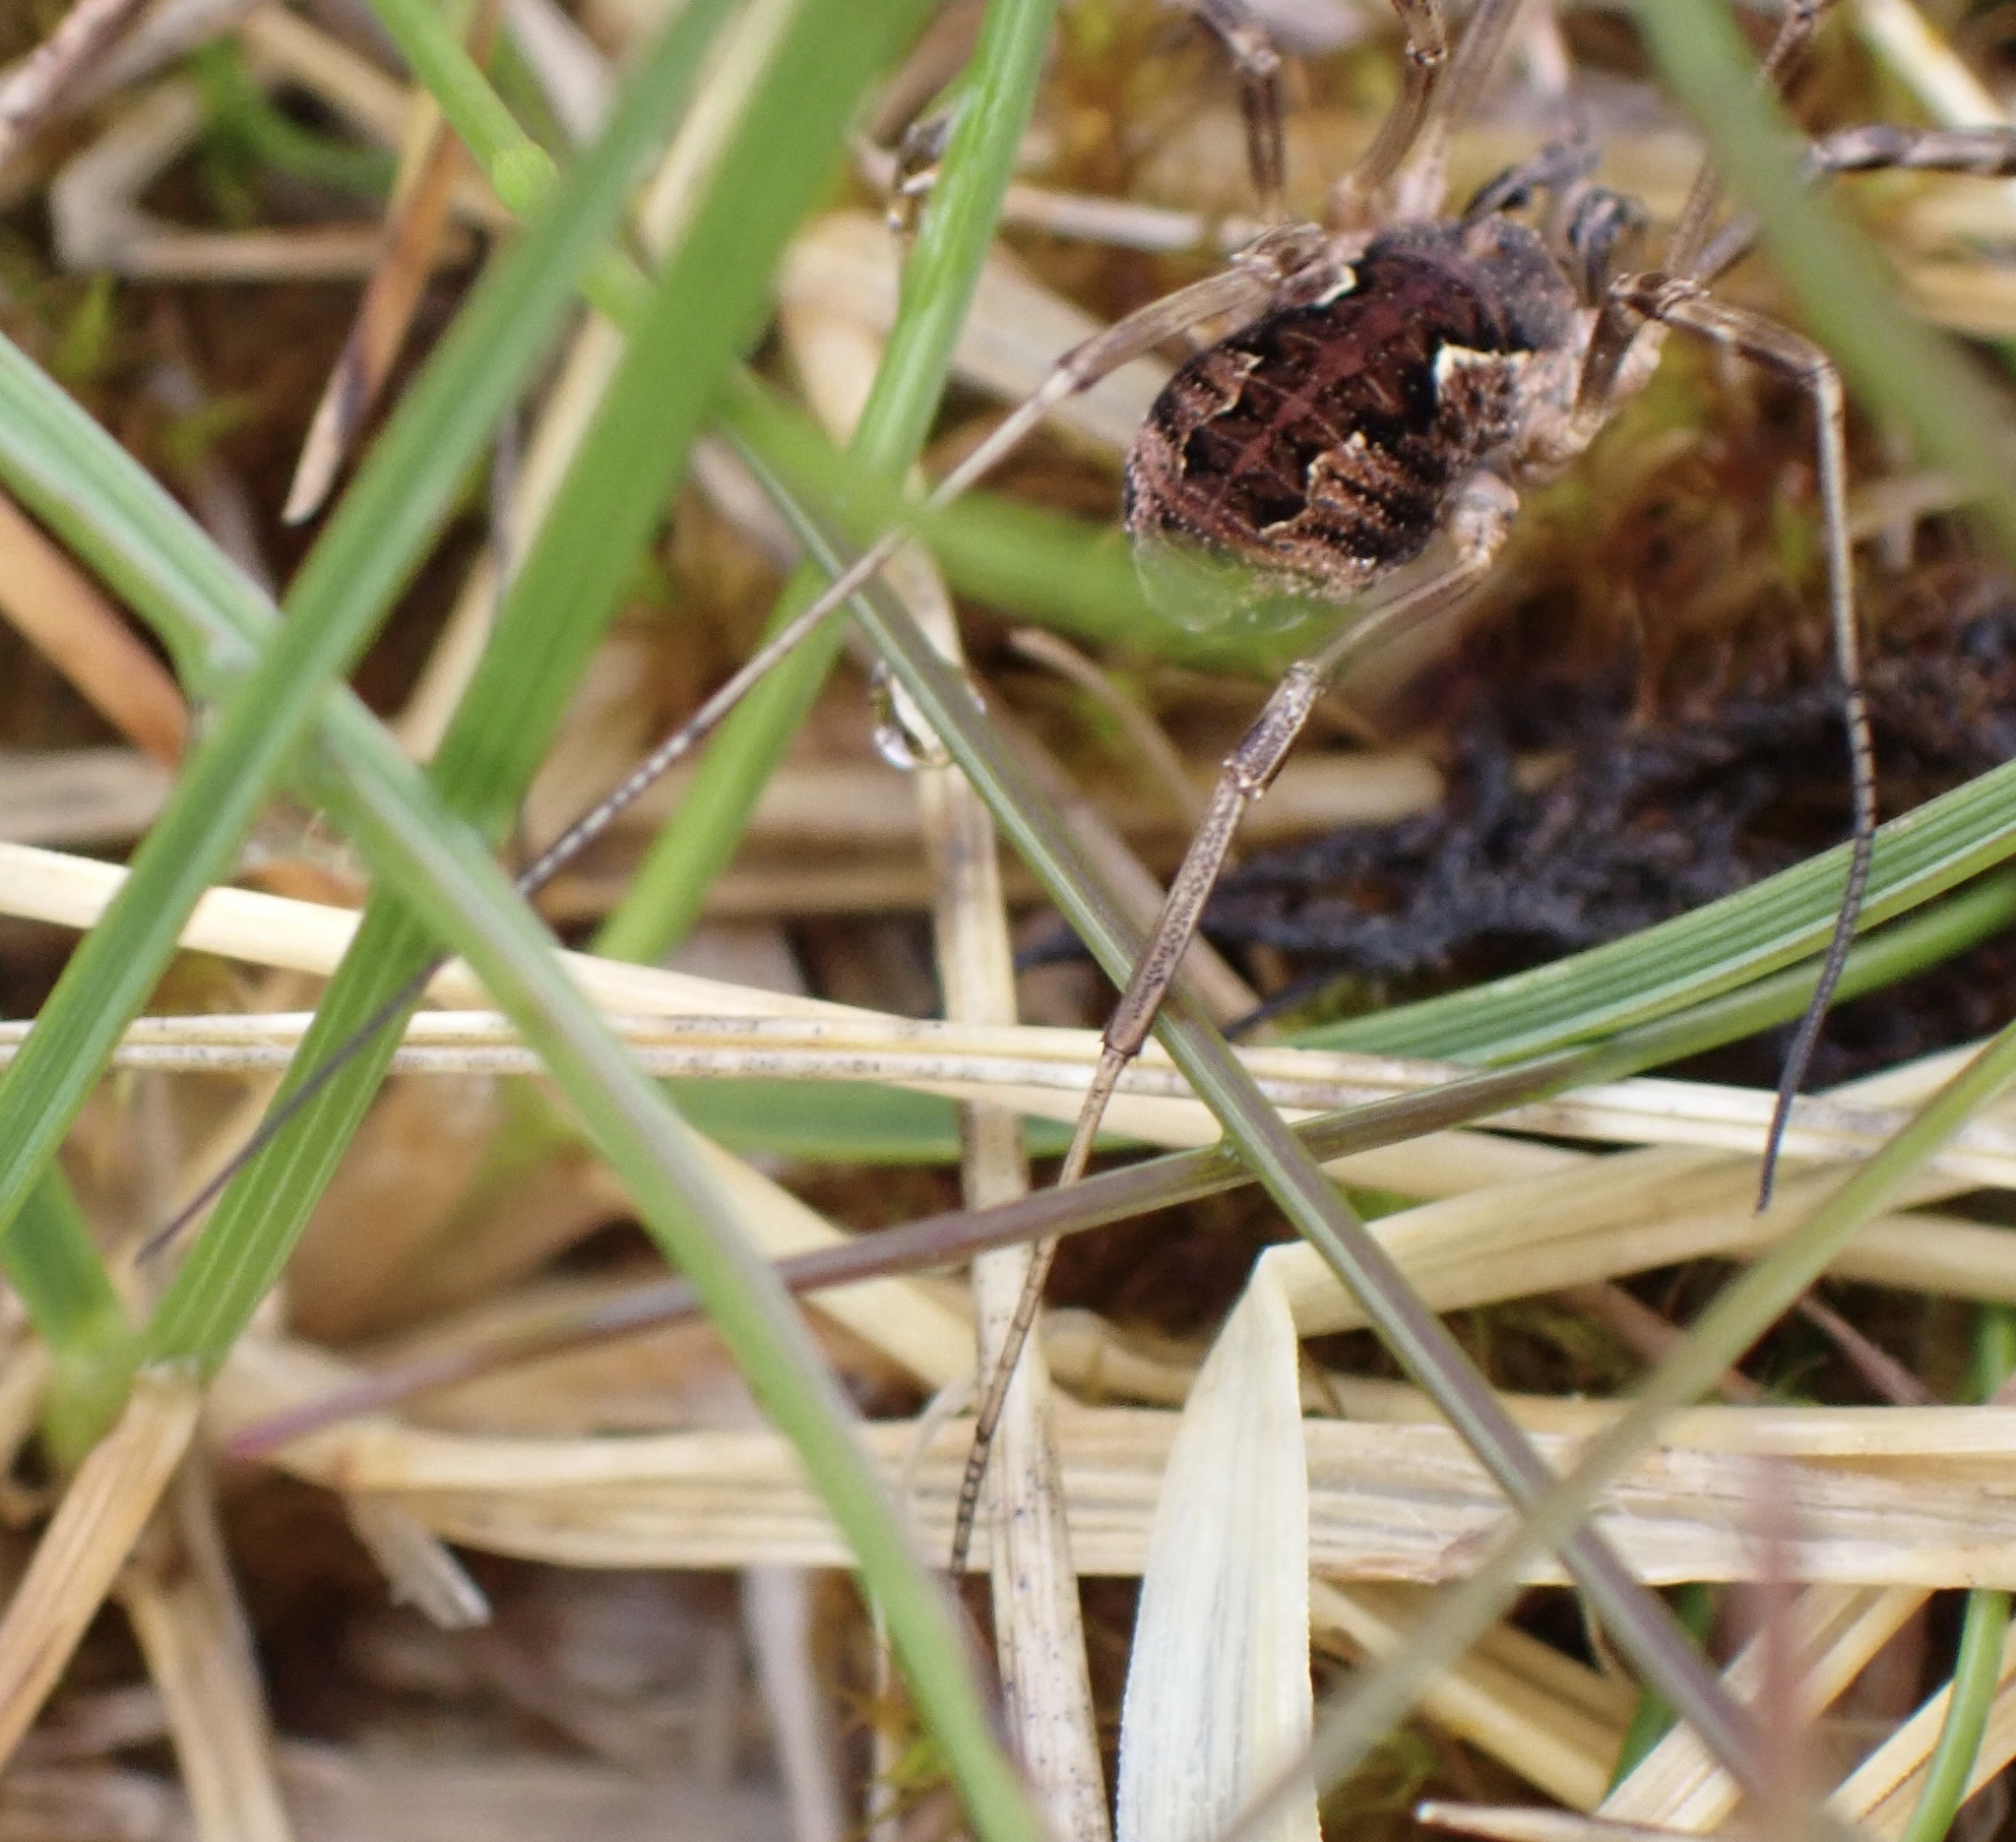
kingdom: Animalia
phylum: Arthropoda
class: Arachnida
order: Opiliones
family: Phalangiidae
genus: Mitopus
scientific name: Mitopus morio
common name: Saddleback harvestman
